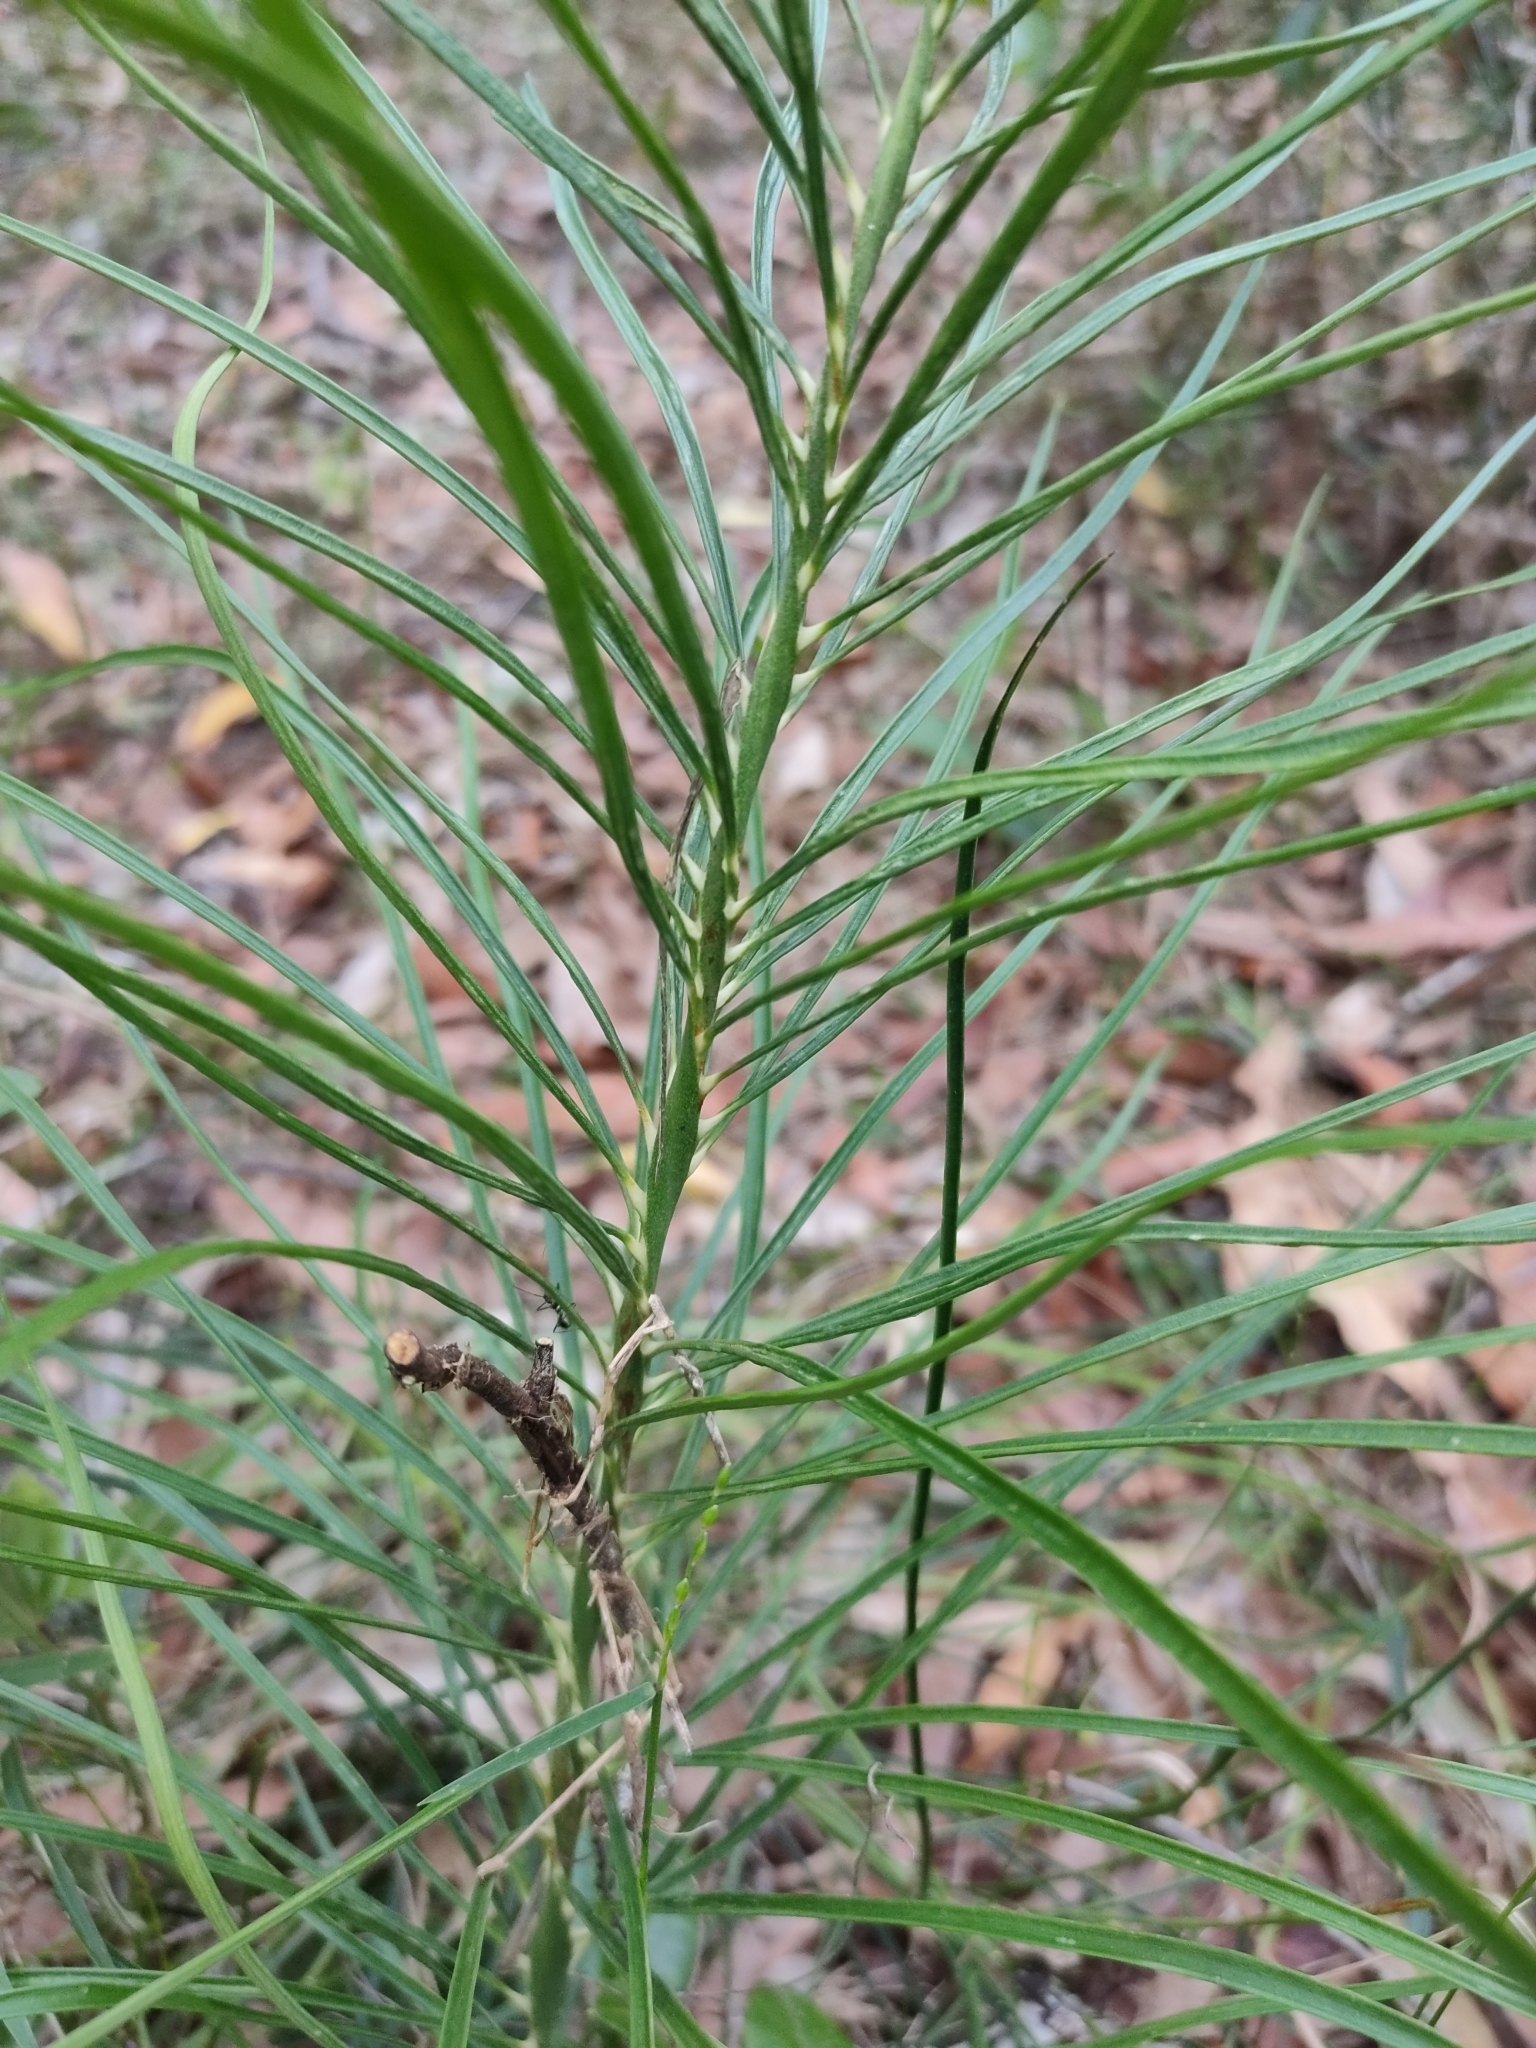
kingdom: Plantae
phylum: Tracheophyta
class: Cycadopsida
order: Cycadales
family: Zamiaceae
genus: Macrozamia
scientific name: Macrozamia pauli-guilielmi
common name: Pineapple zamia
